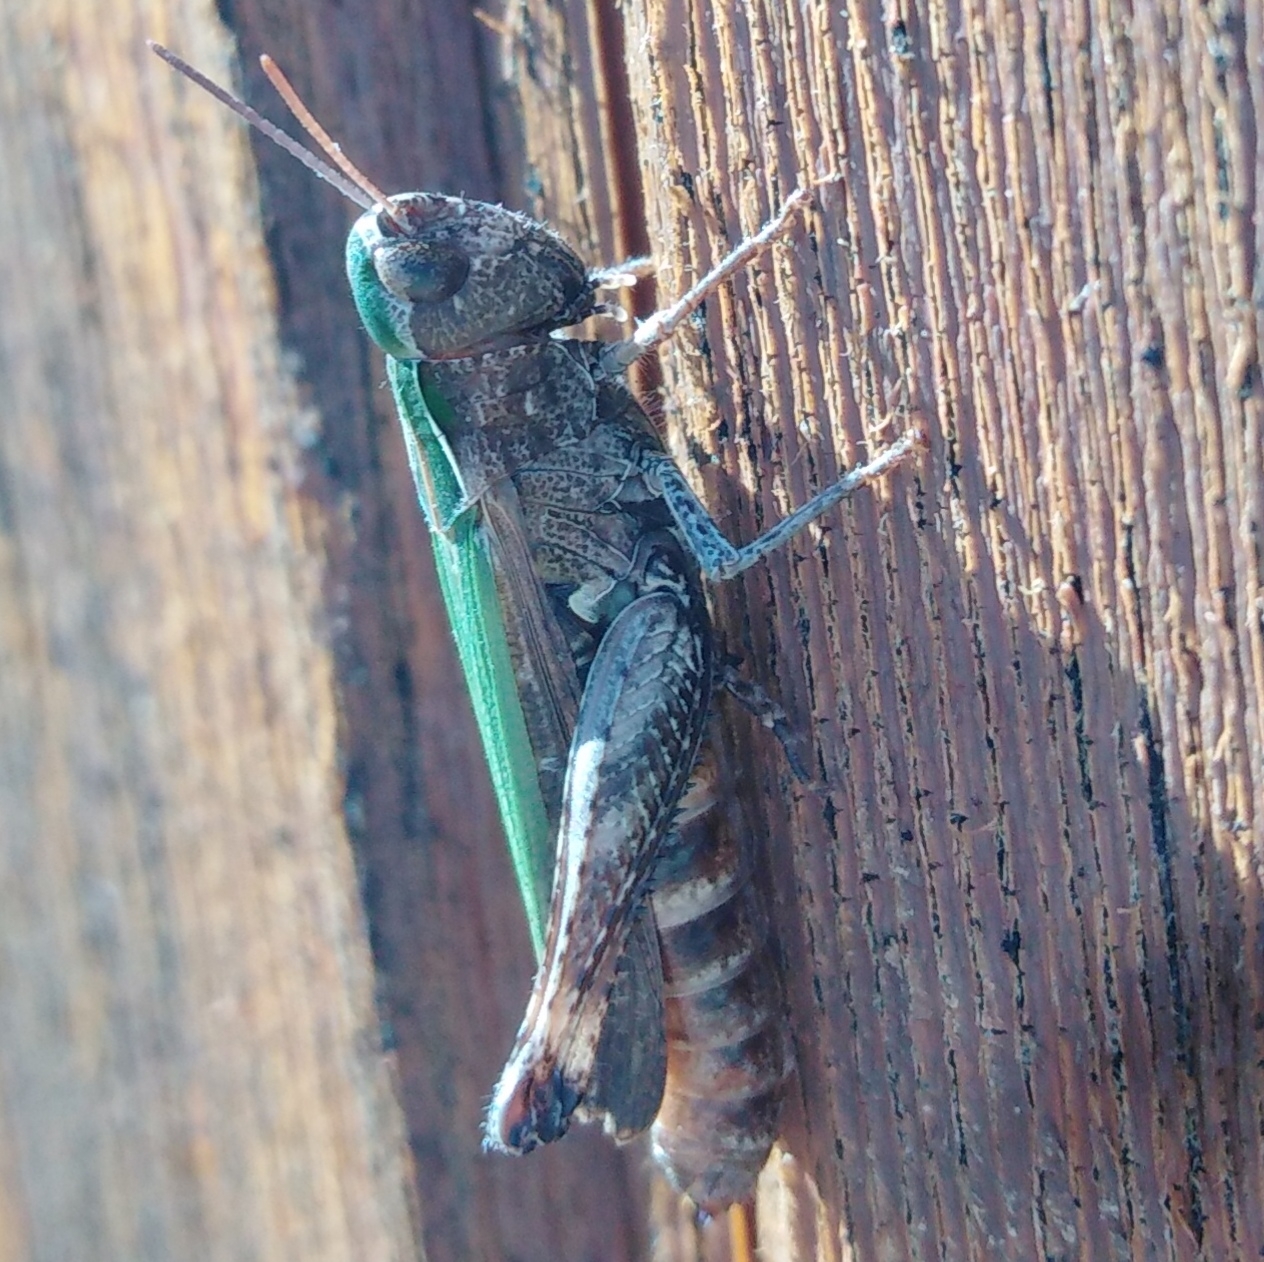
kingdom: Animalia
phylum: Arthropoda
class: Insecta
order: Orthoptera
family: Acrididae
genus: Omocestus
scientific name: Omocestus rufipes
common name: Woodland grasshopper
